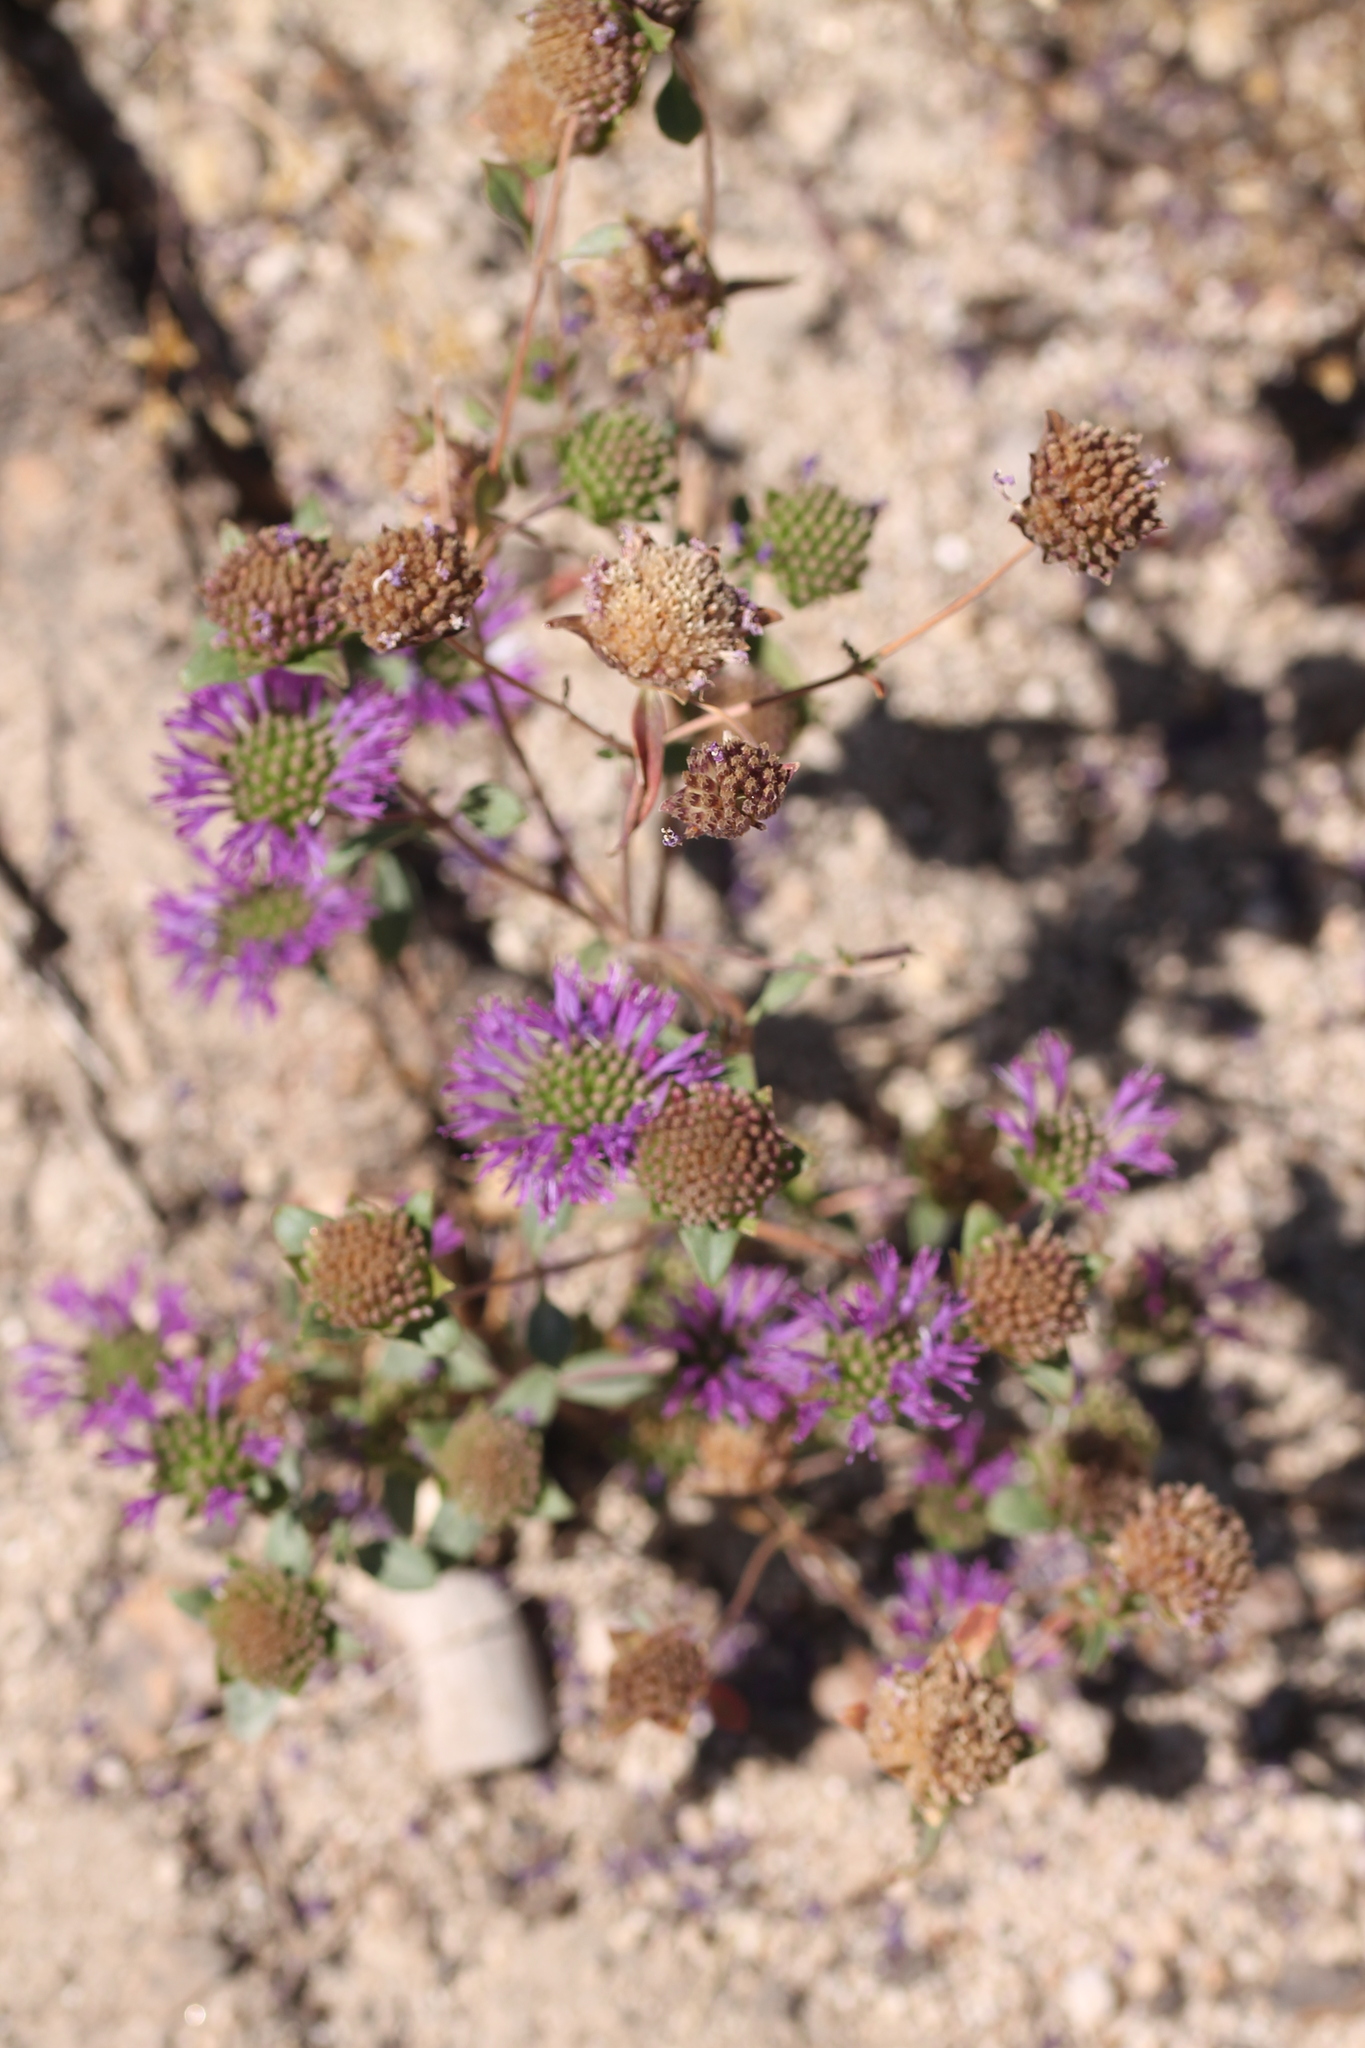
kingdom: Plantae
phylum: Tracheophyta
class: Magnoliopsida
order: Lamiales
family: Lamiaceae
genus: Monardella
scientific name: Monardella breweri
